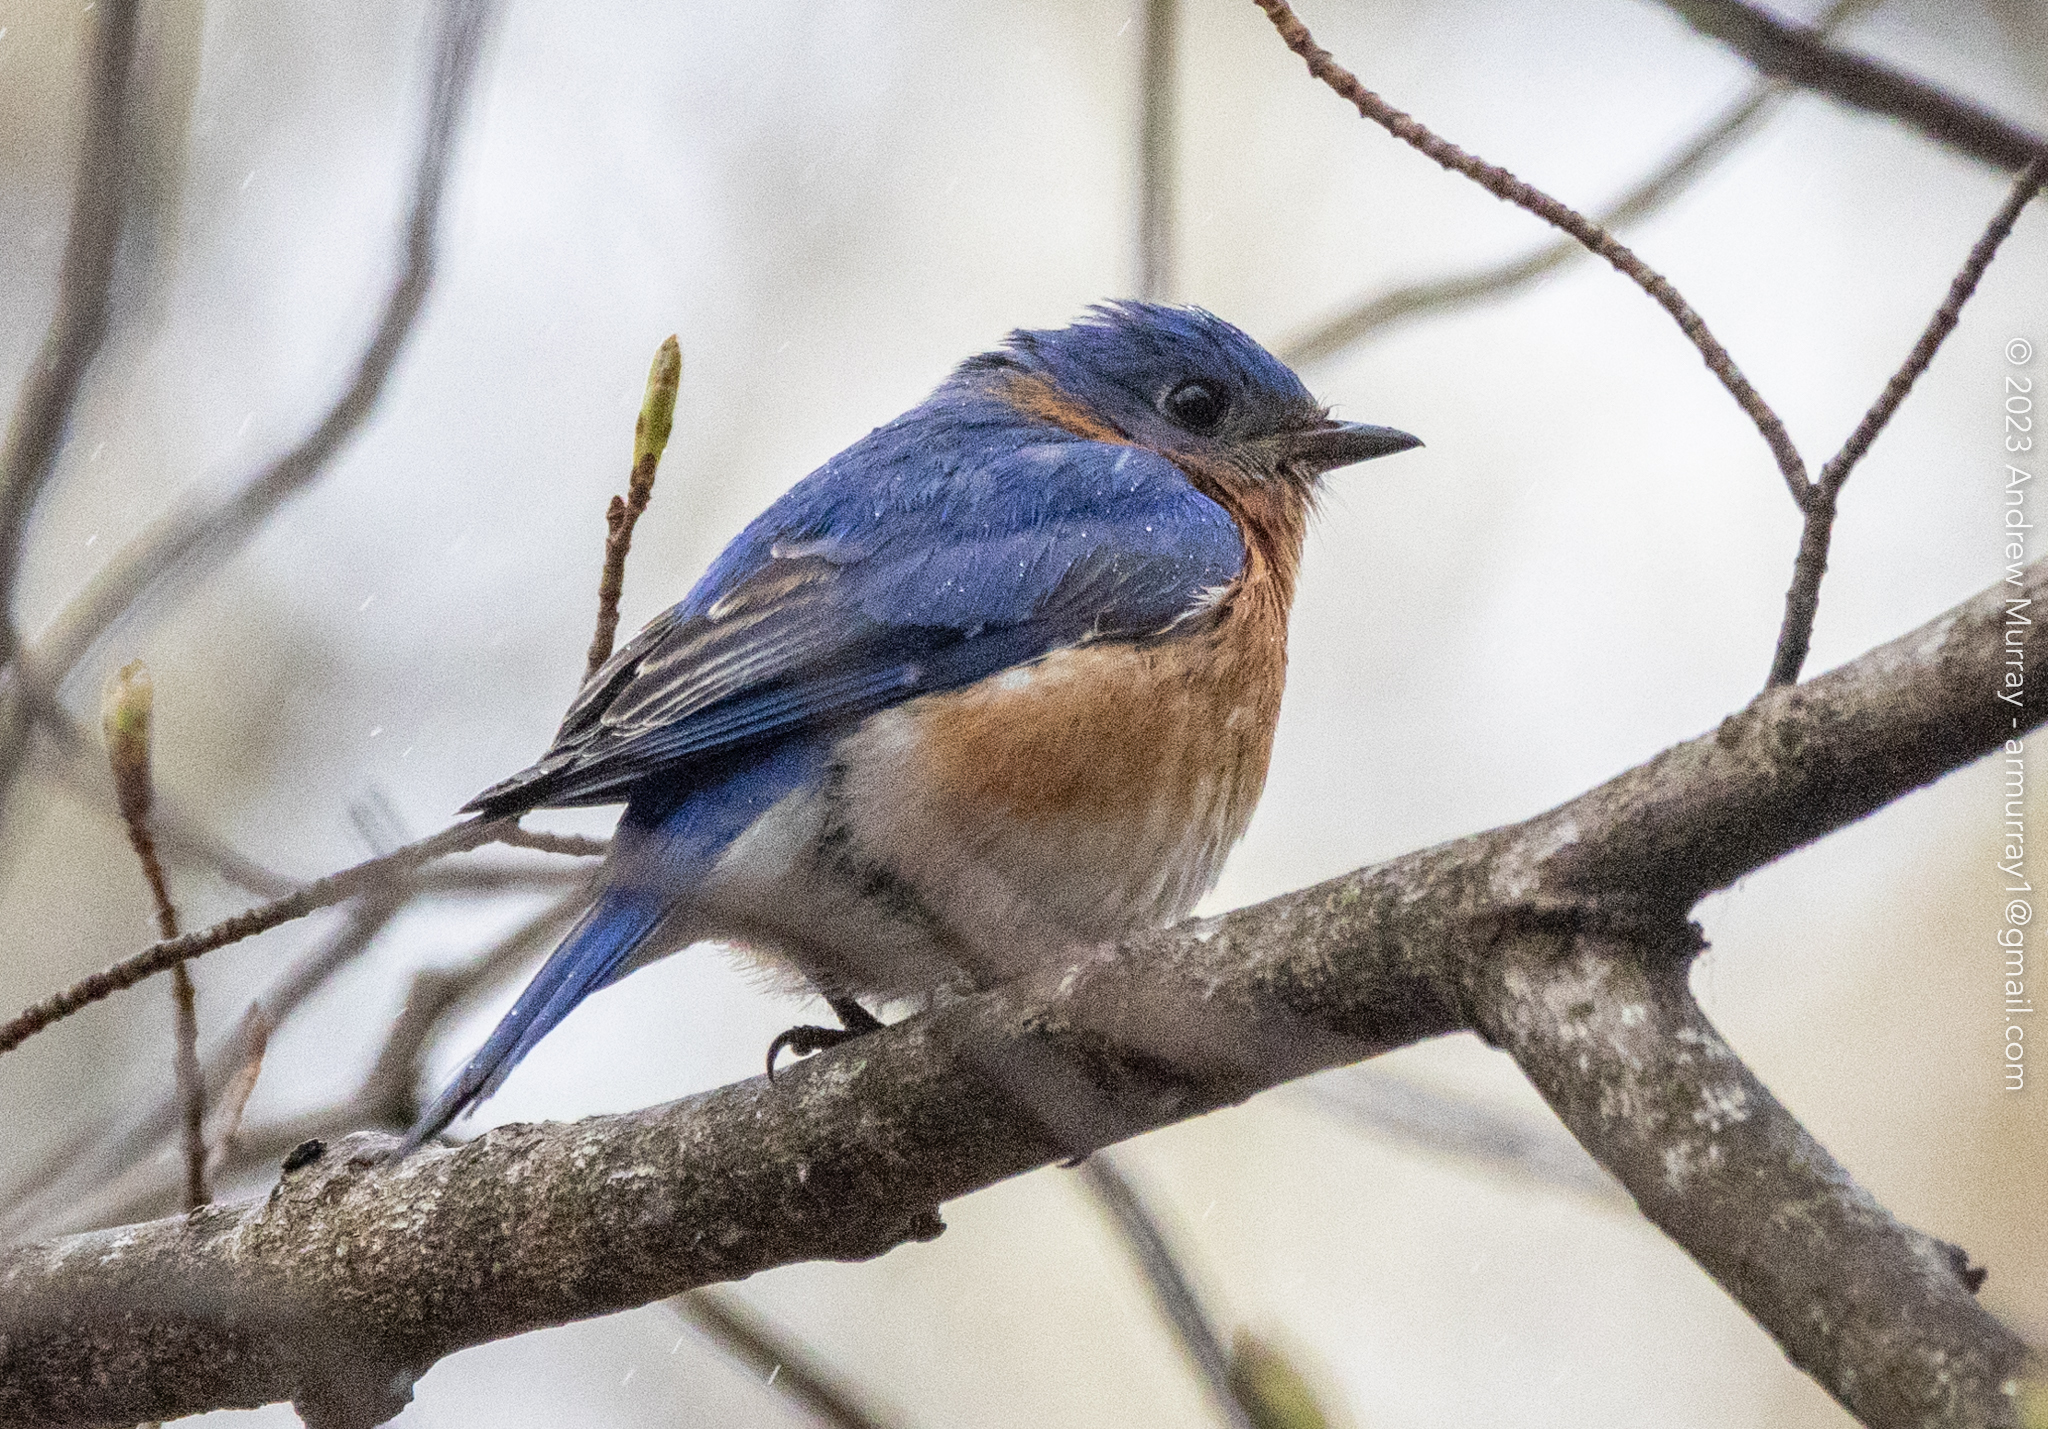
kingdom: Animalia
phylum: Chordata
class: Aves
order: Passeriformes
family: Turdidae
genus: Sialia
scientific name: Sialia sialis
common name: Eastern bluebird
